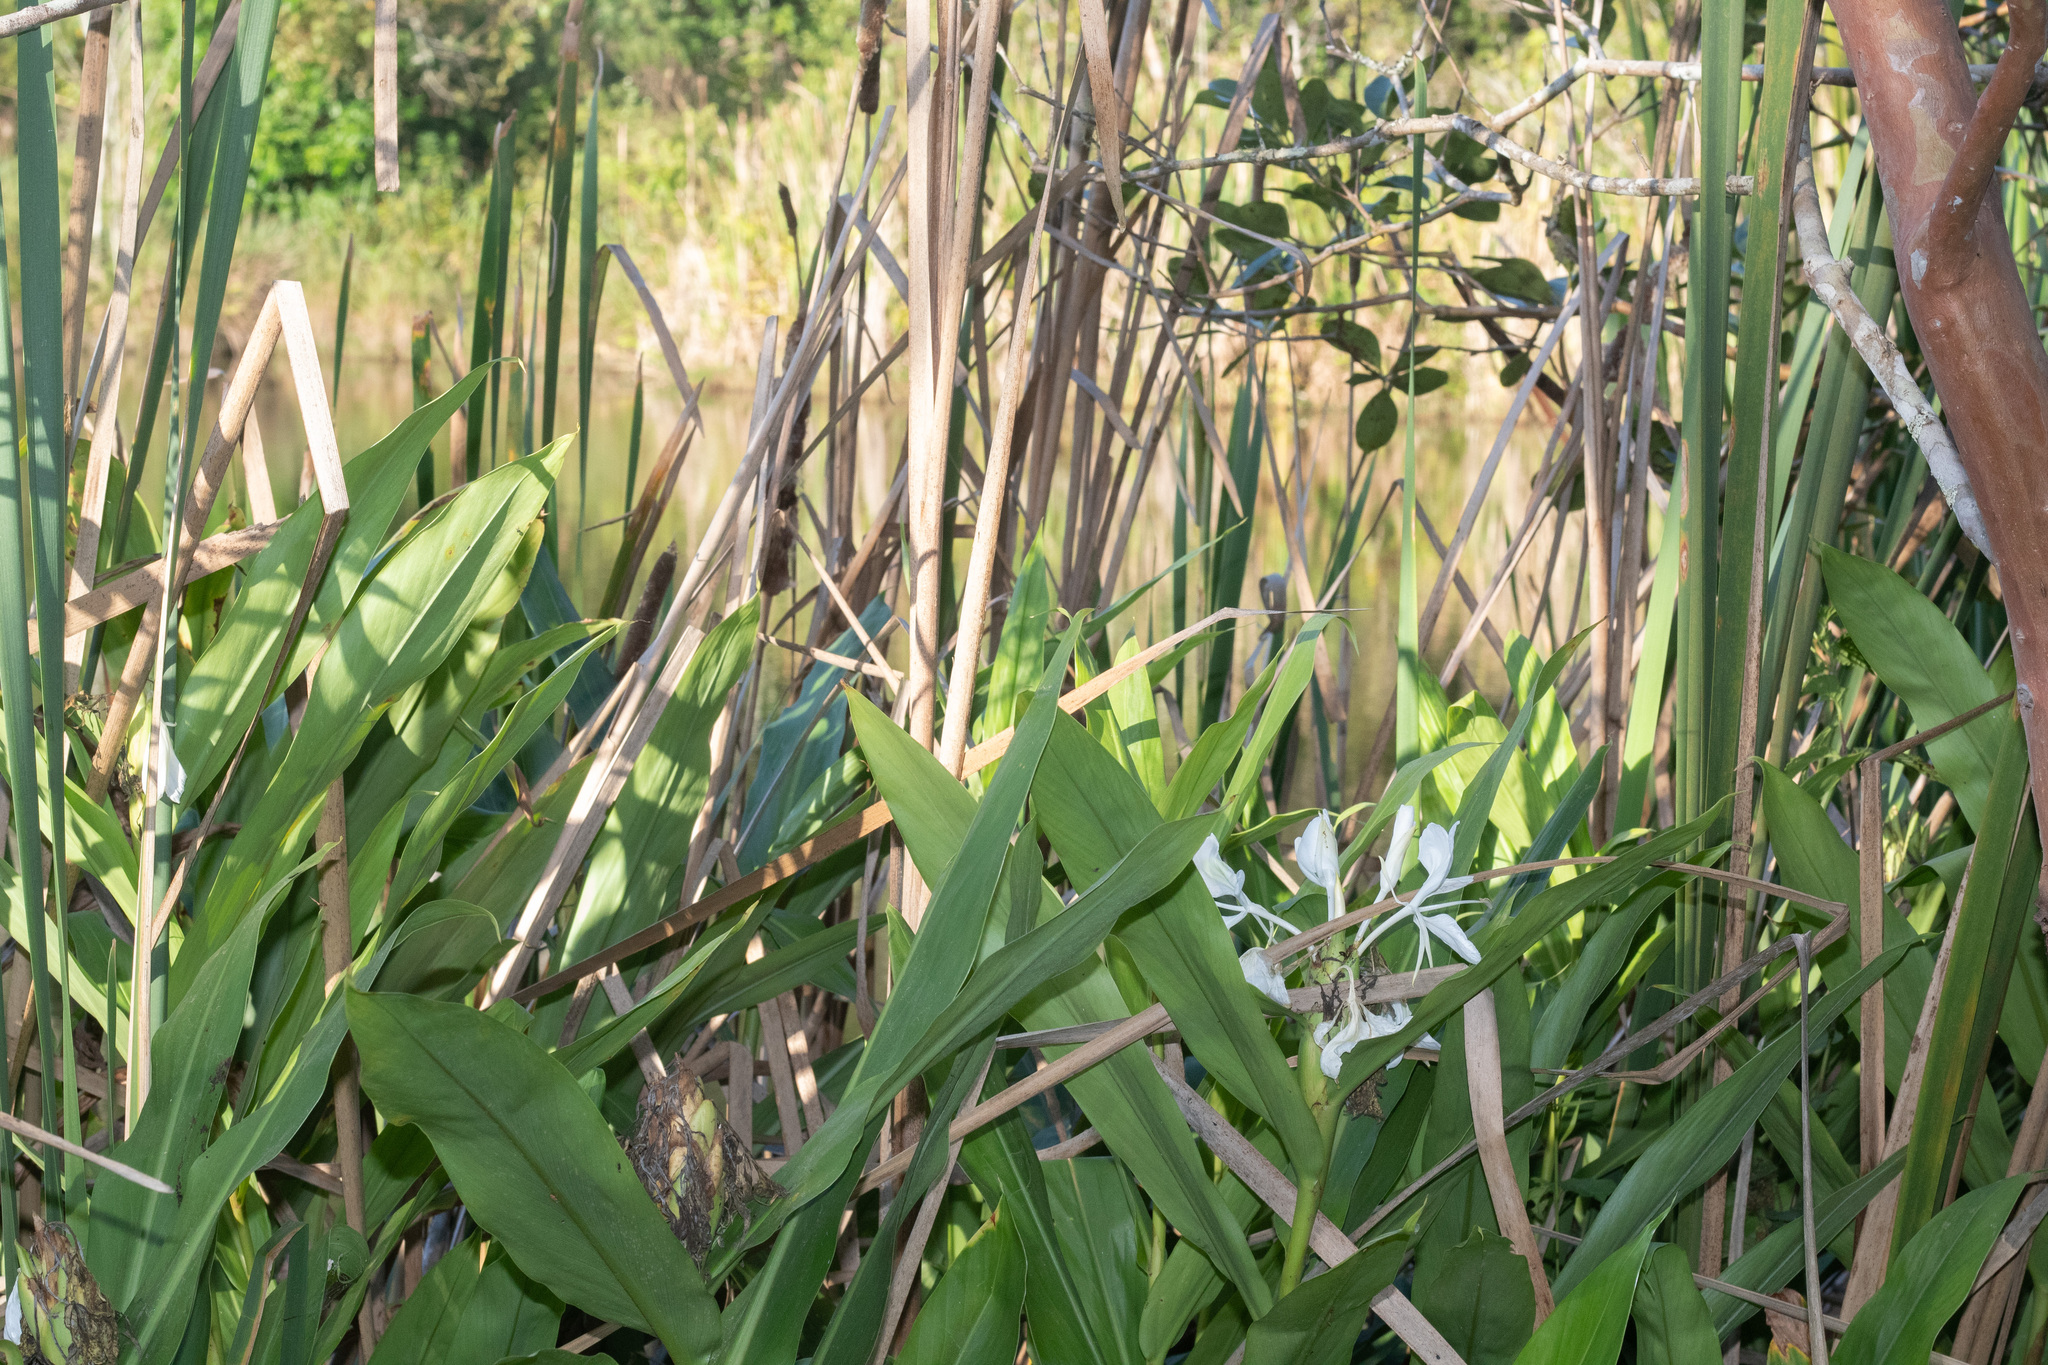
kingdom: Plantae
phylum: Tracheophyta
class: Liliopsida
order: Zingiberales
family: Zingiberaceae
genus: Hedychium
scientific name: Hedychium coronarium
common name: White garland-lily
